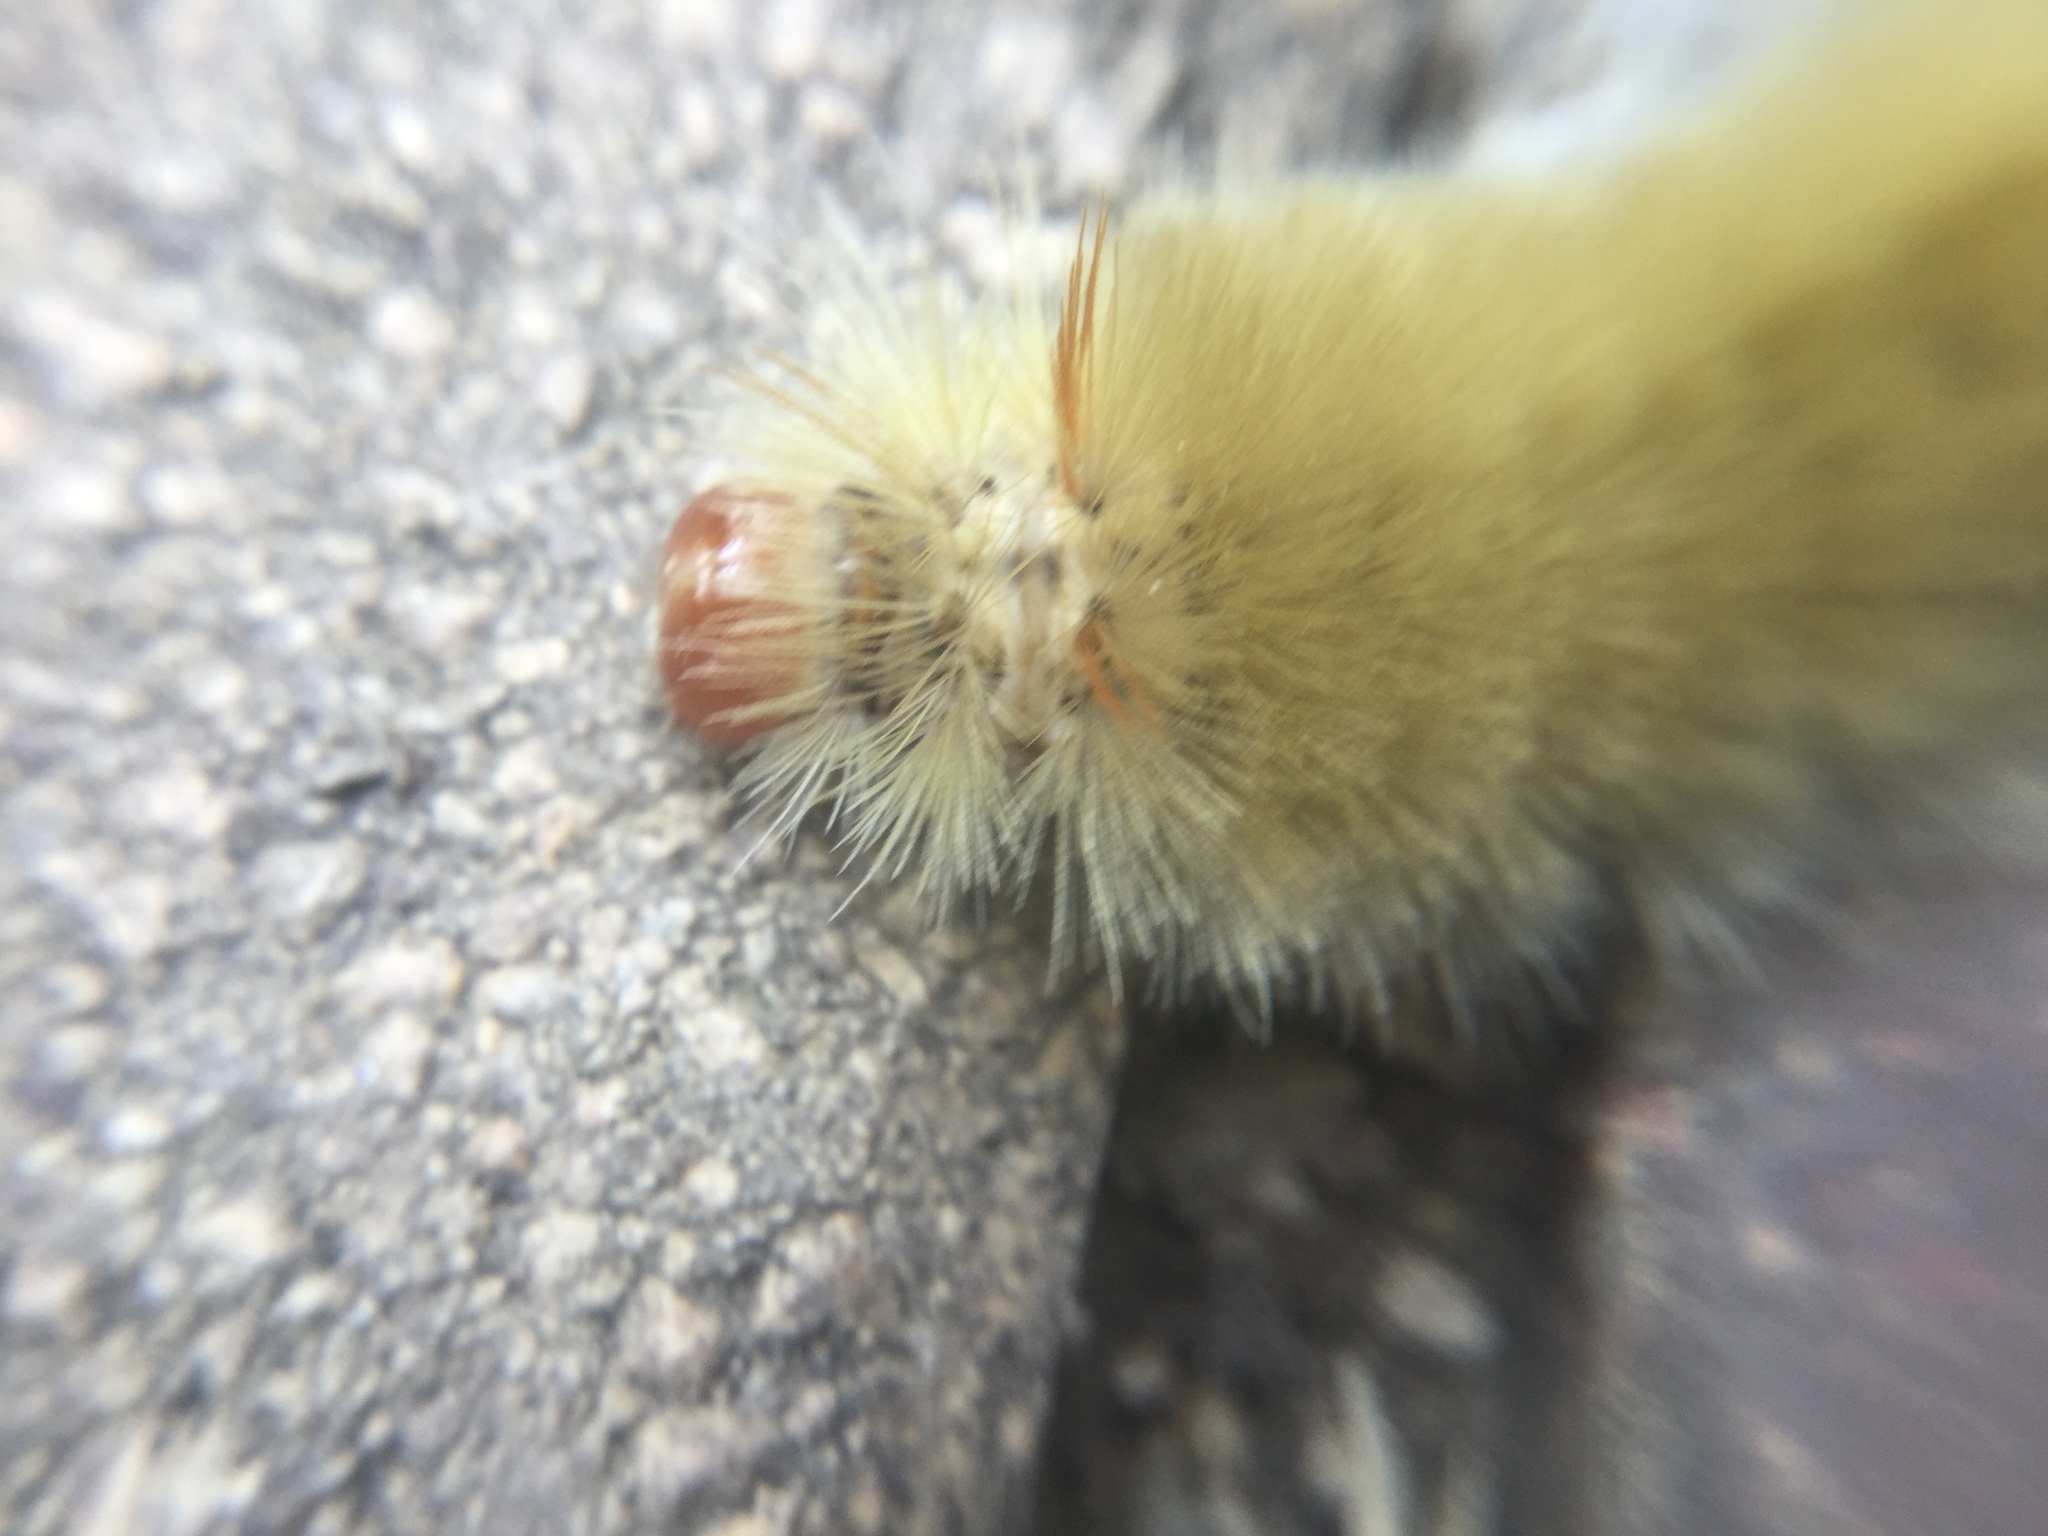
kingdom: Animalia
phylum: Arthropoda
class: Insecta
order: Lepidoptera
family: Erebidae
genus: Halysidota
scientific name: Halysidota harrisii
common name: Sycamore tussock moth
